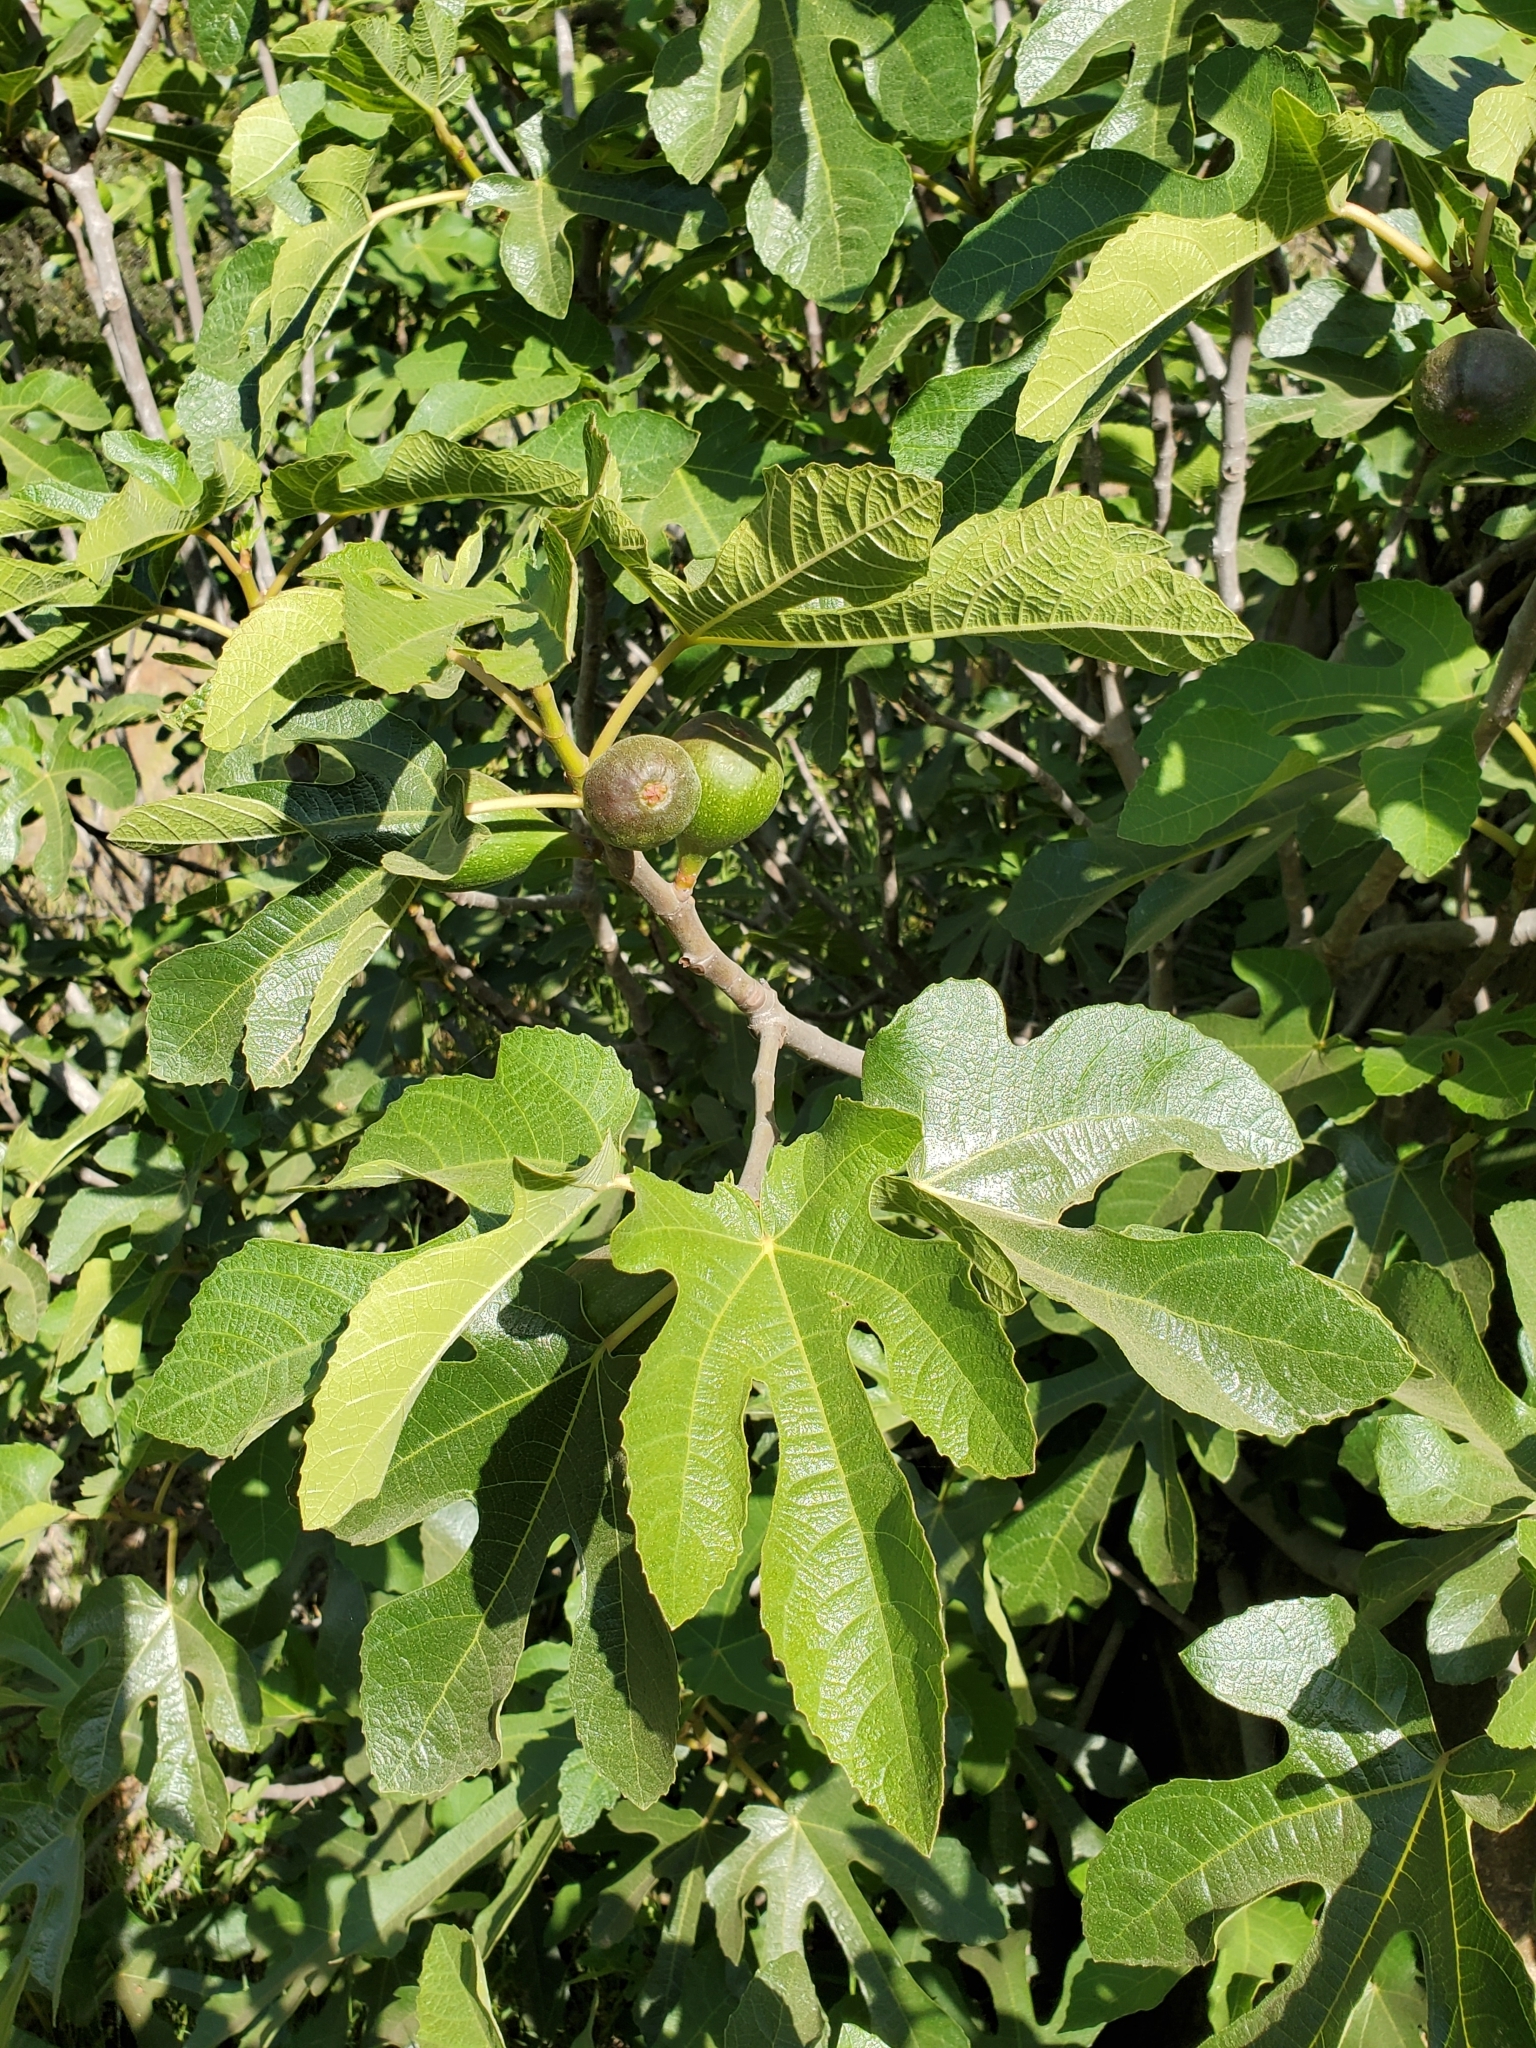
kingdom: Plantae
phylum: Tracheophyta
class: Magnoliopsida
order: Rosales
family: Moraceae
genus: Ficus
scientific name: Ficus carica
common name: Fig
